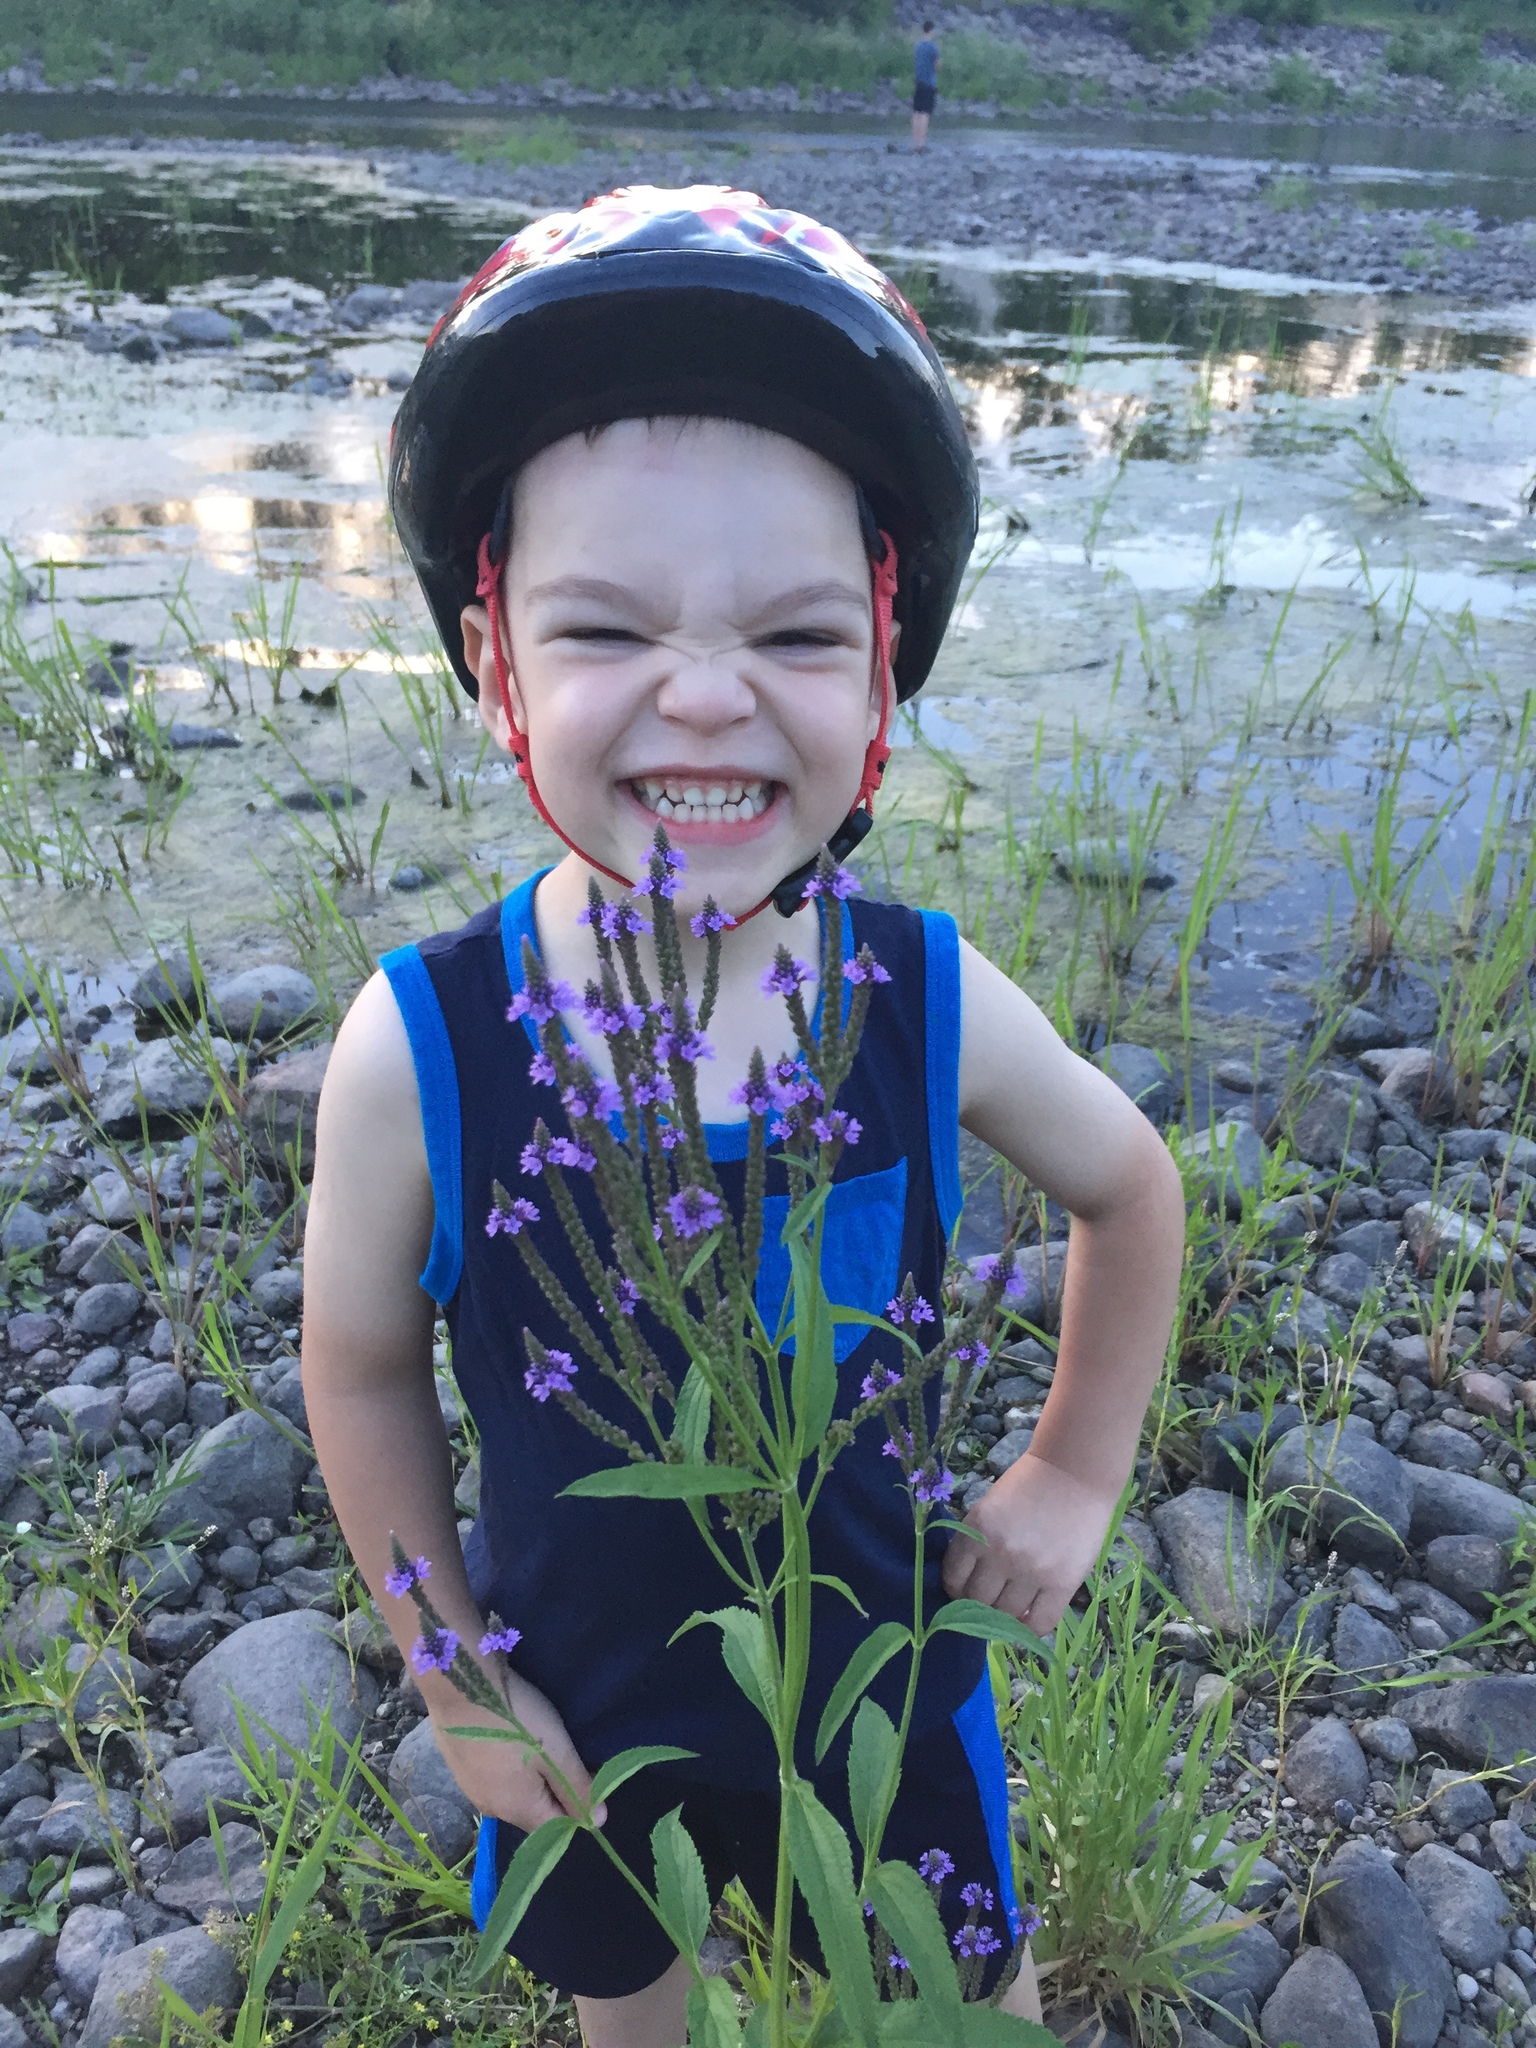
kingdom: Plantae
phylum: Tracheophyta
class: Magnoliopsida
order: Lamiales
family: Verbenaceae
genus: Verbena
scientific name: Verbena hastata
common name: American blue vervain
